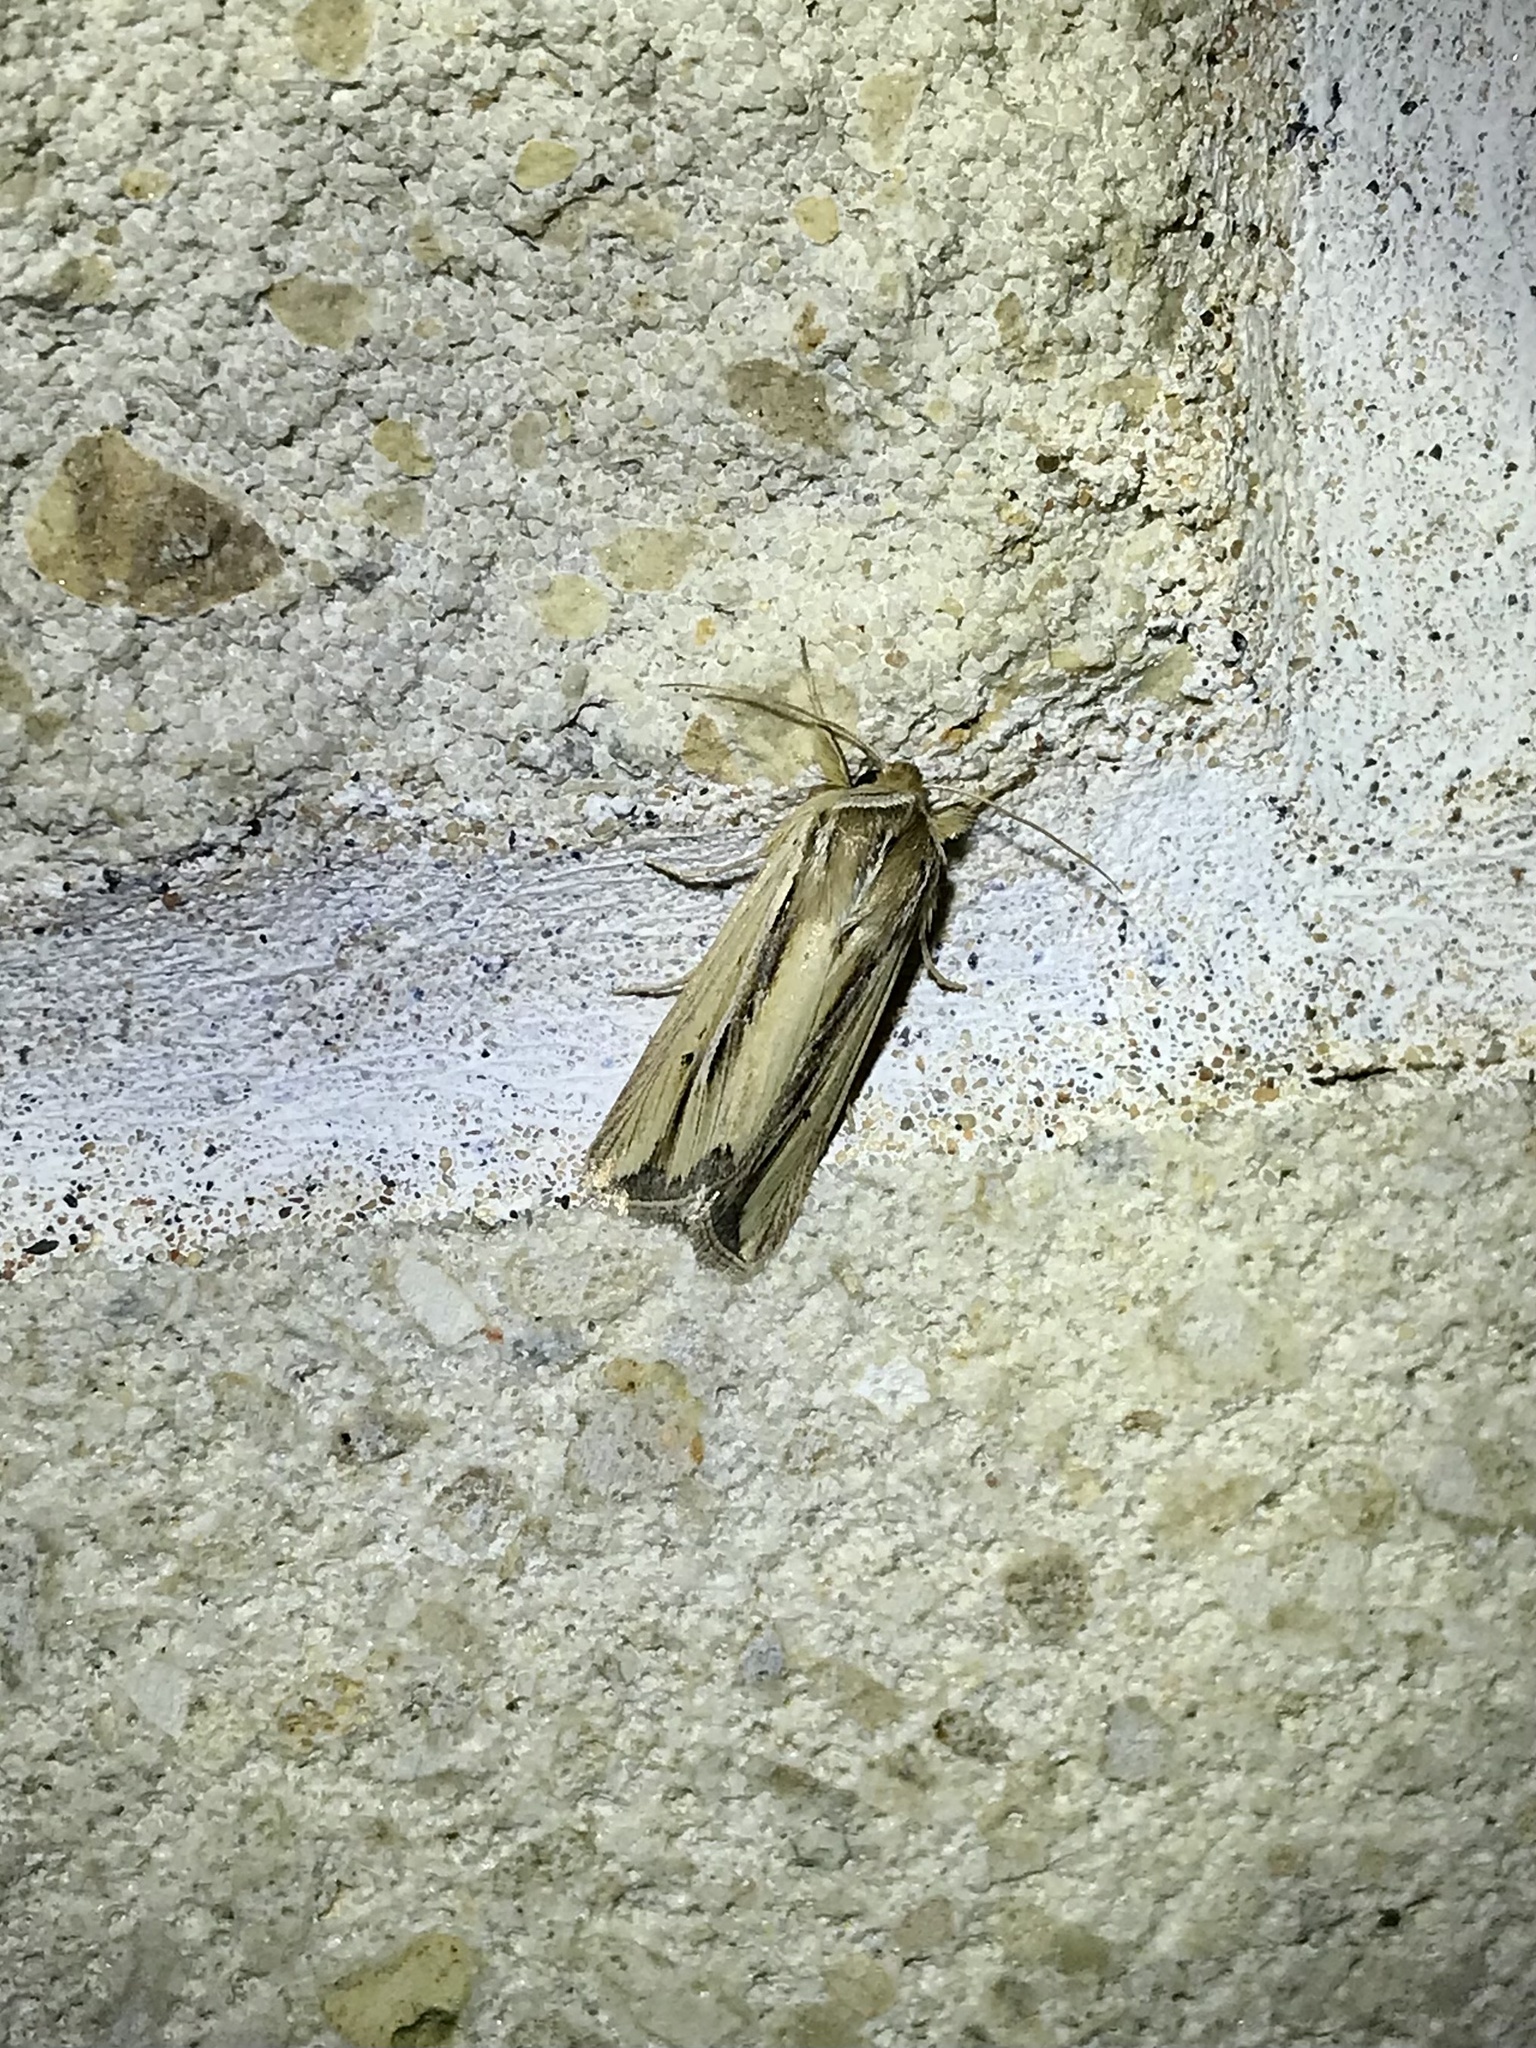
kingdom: Animalia
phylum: Arthropoda
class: Insecta
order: Lepidoptera
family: Noctuidae
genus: Dargida
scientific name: Dargida diffusa
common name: Wheat head armyworm
